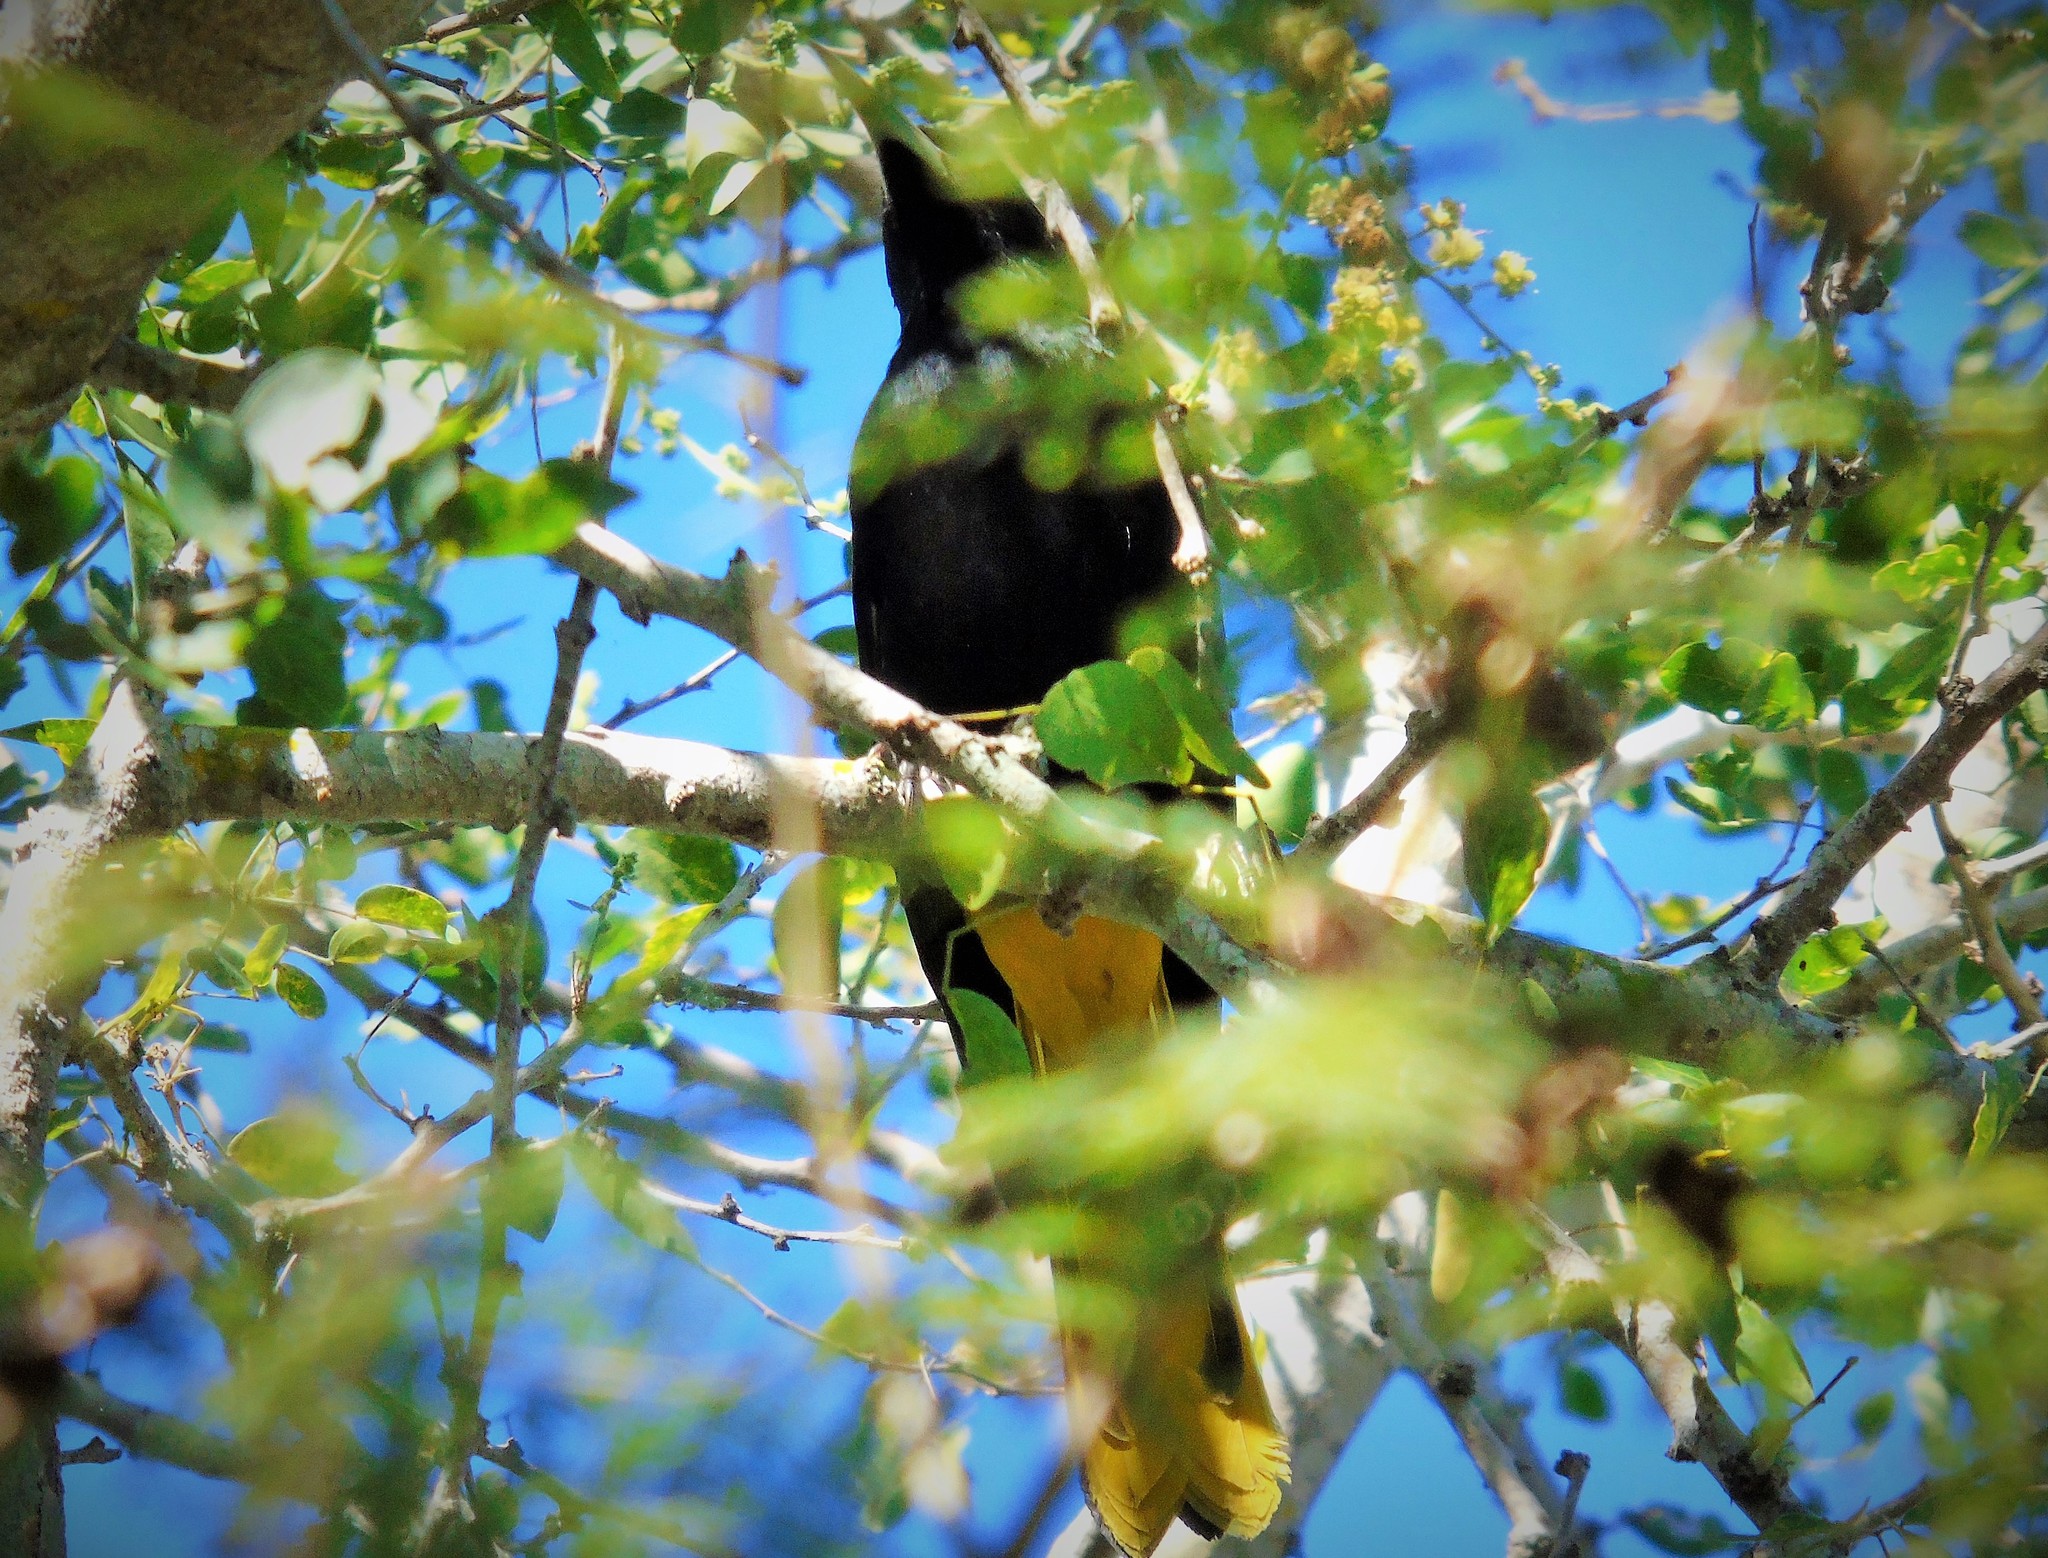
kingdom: Animalia
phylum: Chordata
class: Aves
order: Passeriformes
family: Icteridae
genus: Cacicus
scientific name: Cacicus melanicterus
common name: Yellow-winged cacique
